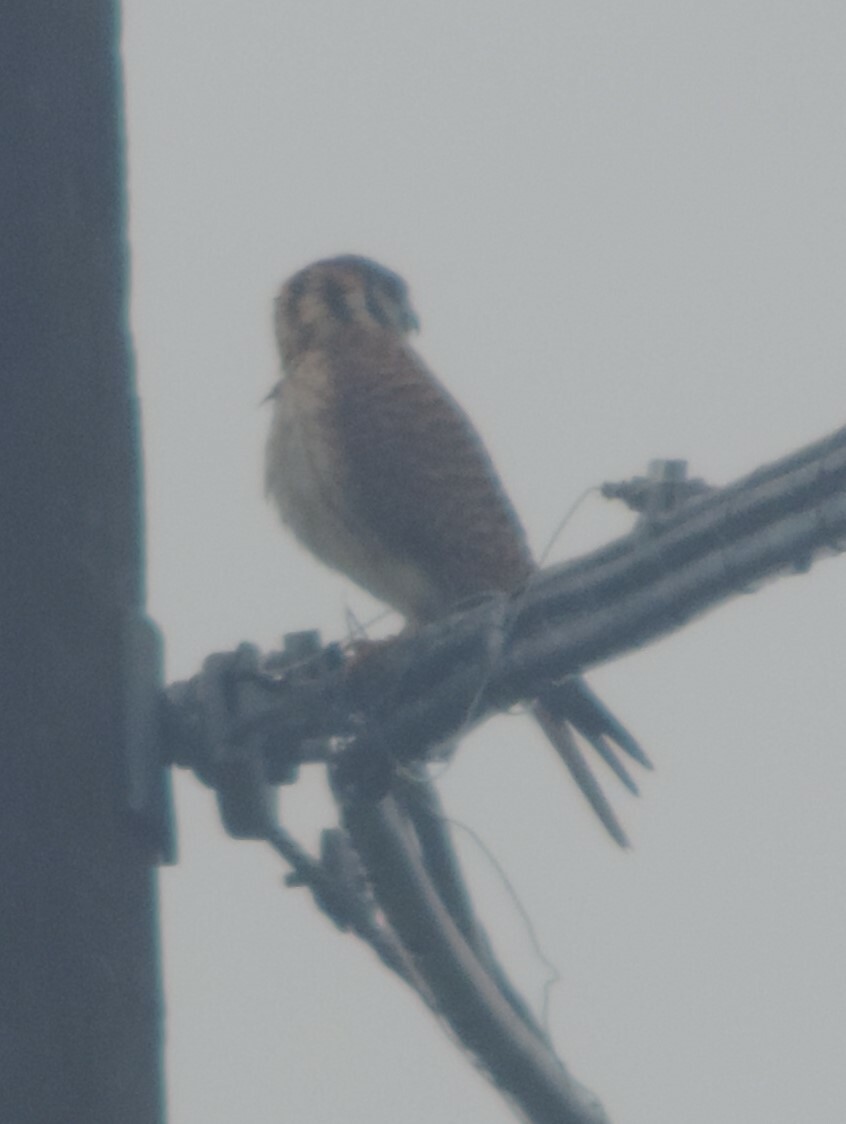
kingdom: Animalia
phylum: Chordata
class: Aves
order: Falconiformes
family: Falconidae
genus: Falco
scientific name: Falco sparverius
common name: American kestrel
